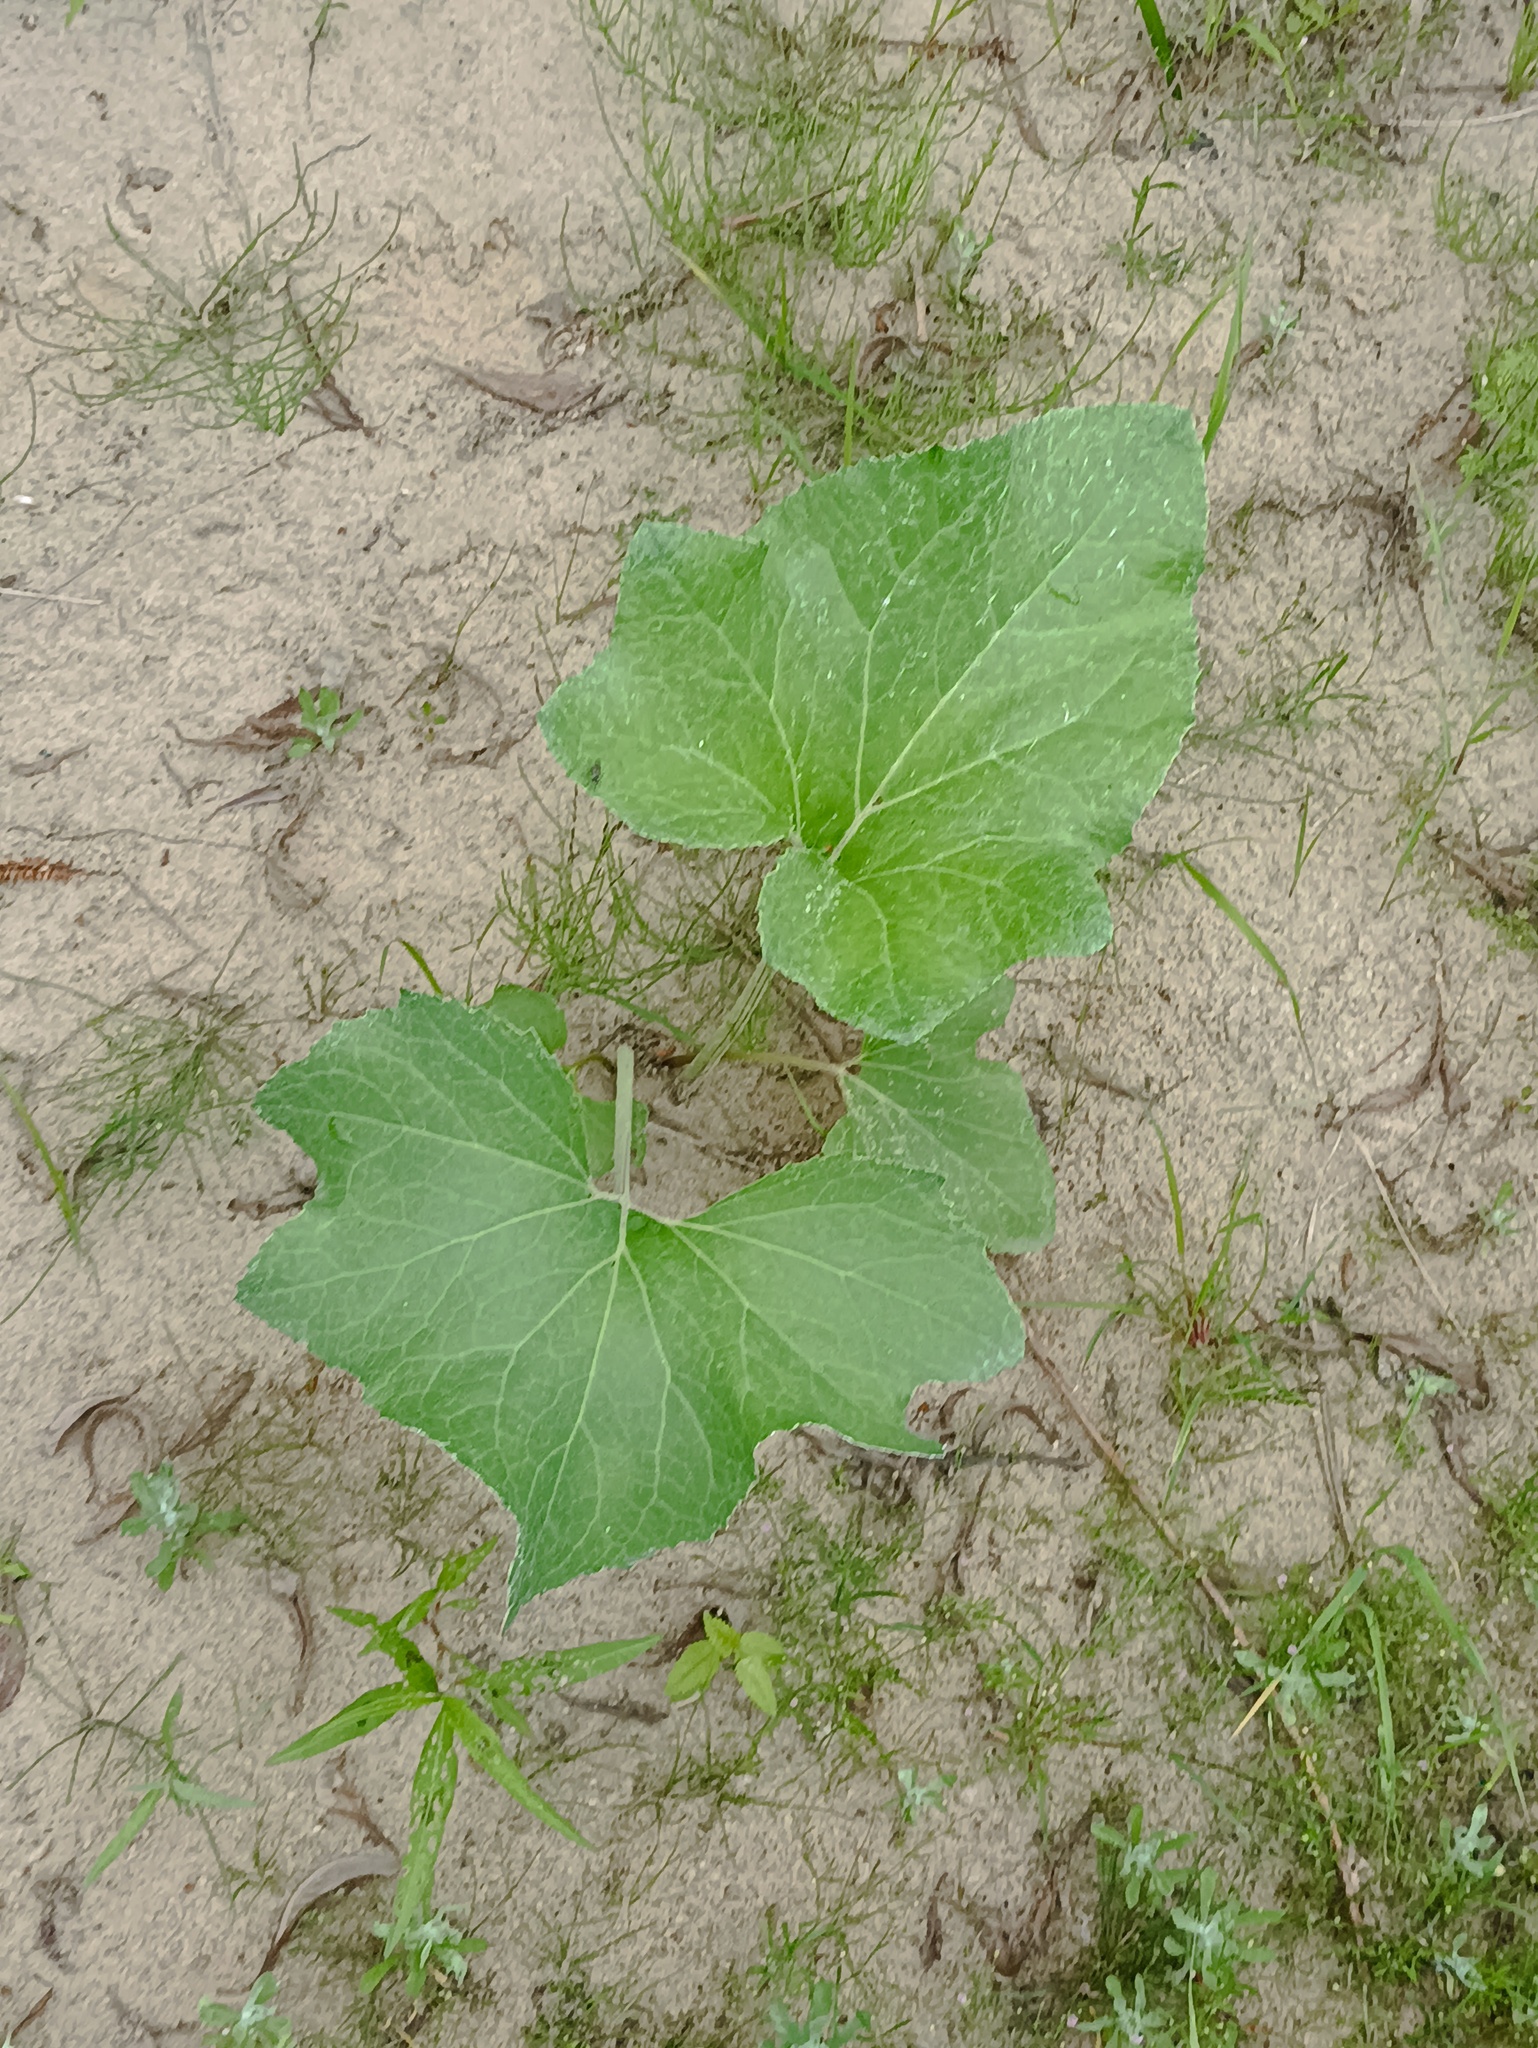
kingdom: Plantae
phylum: Tracheophyta
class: Magnoliopsida
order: Asterales
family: Asteraceae
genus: Petasites
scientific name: Petasites spurius
